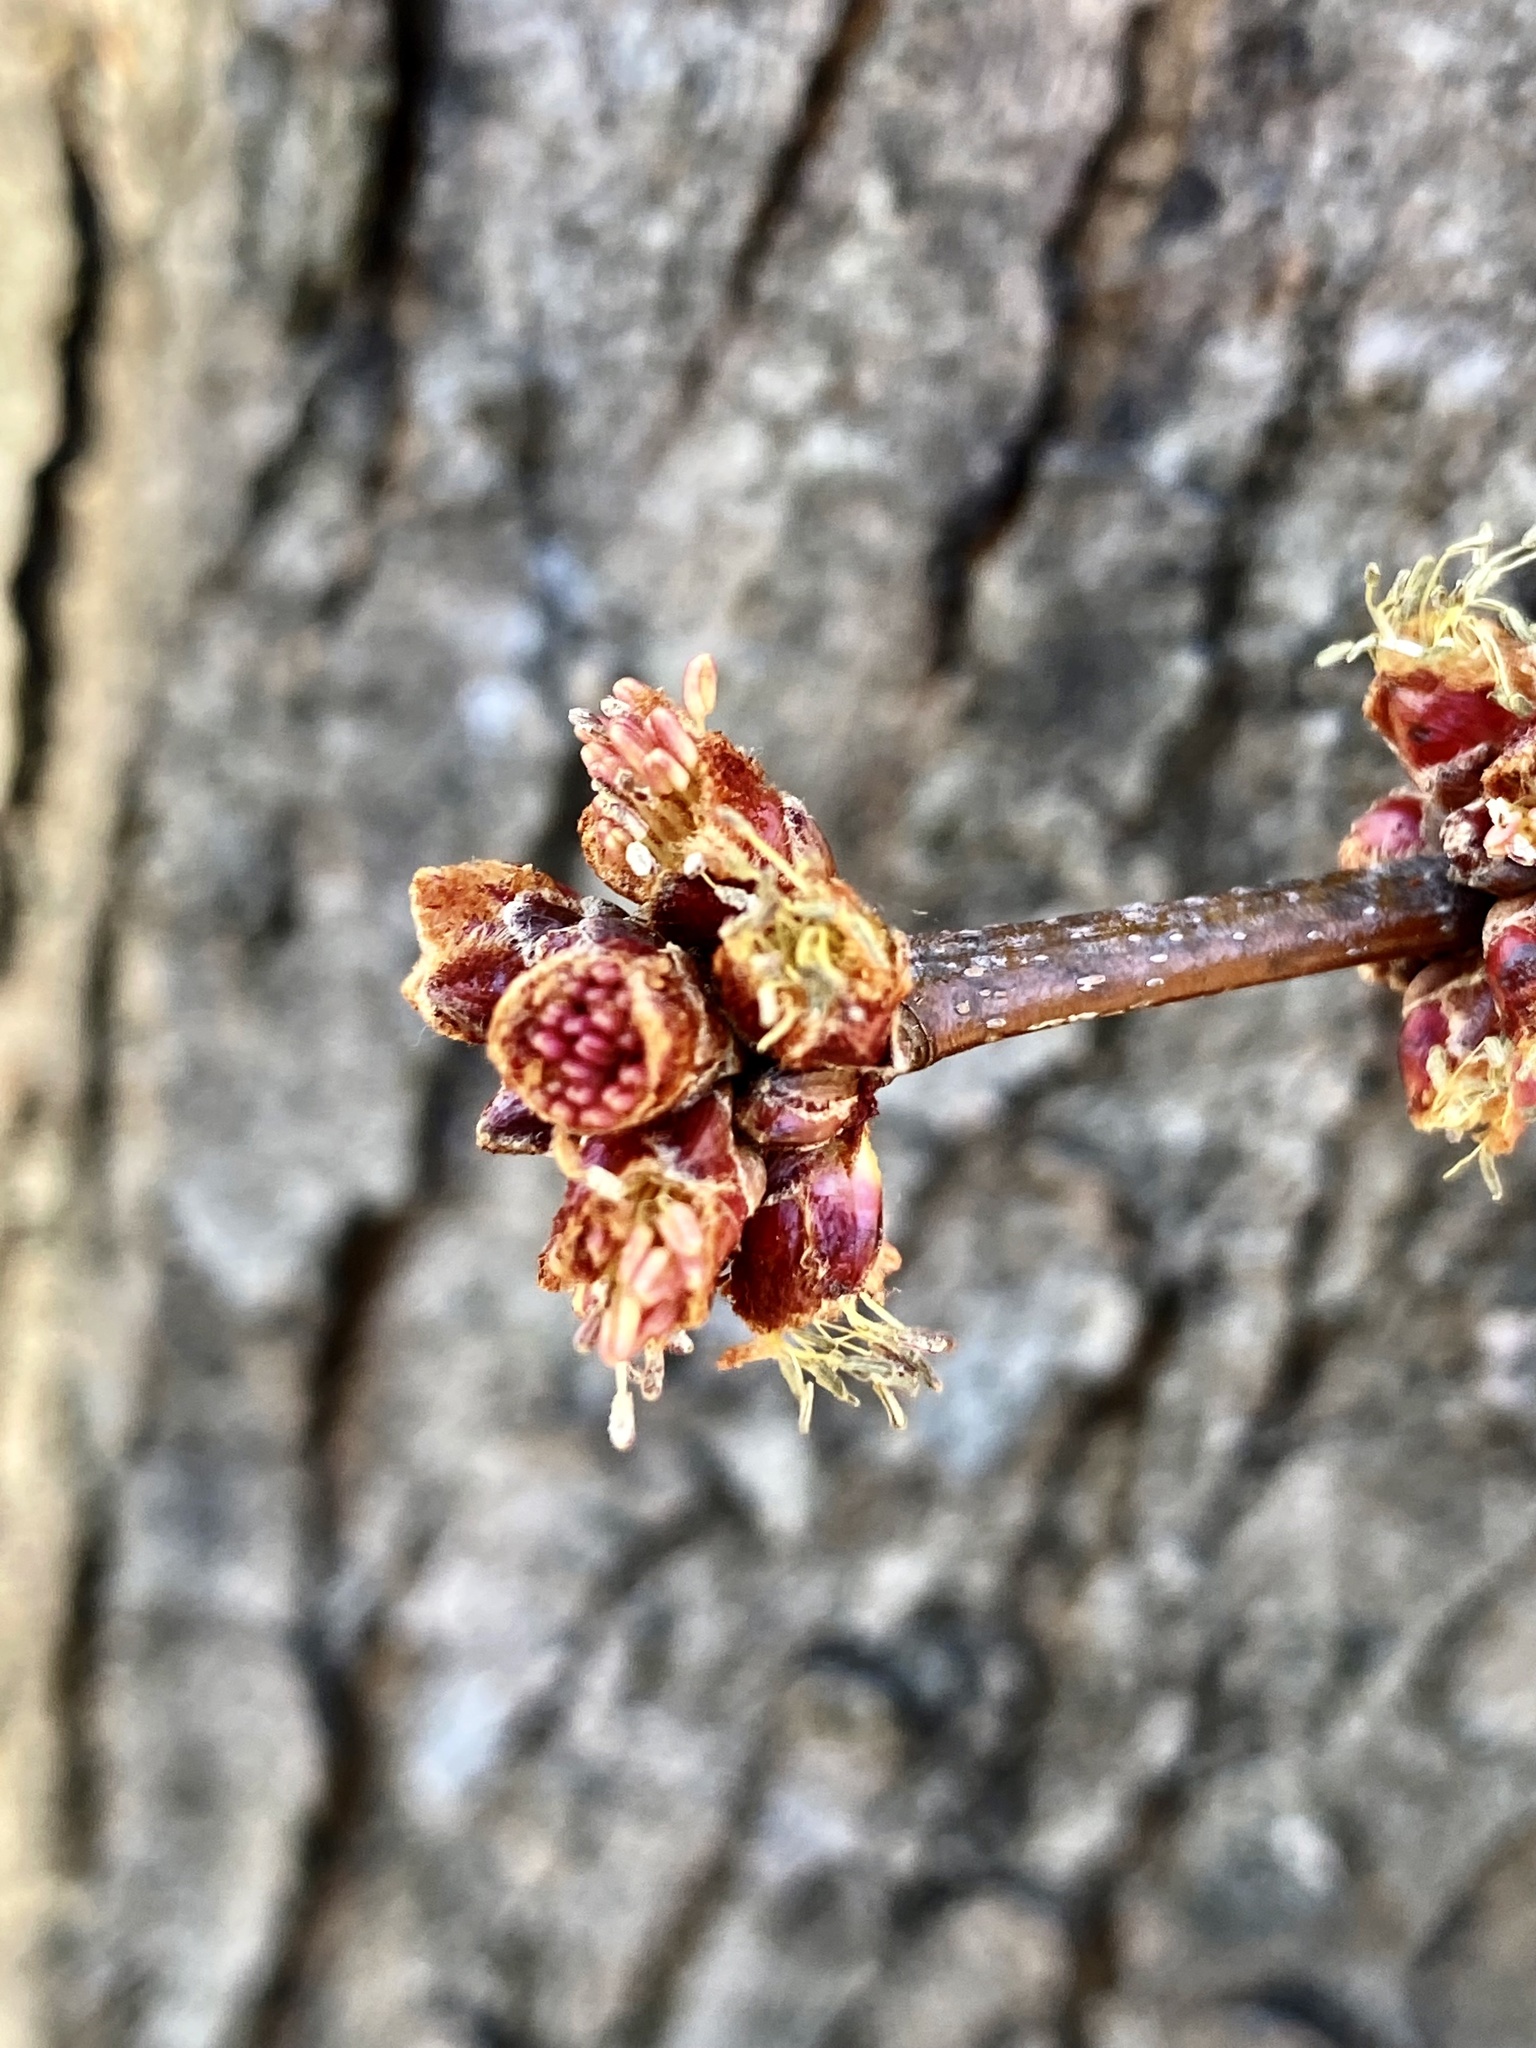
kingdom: Plantae
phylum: Tracheophyta
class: Magnoliopsida
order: Sapindales
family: Sapindaceae
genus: Acer
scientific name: Acer saccharinum
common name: Silver maple
